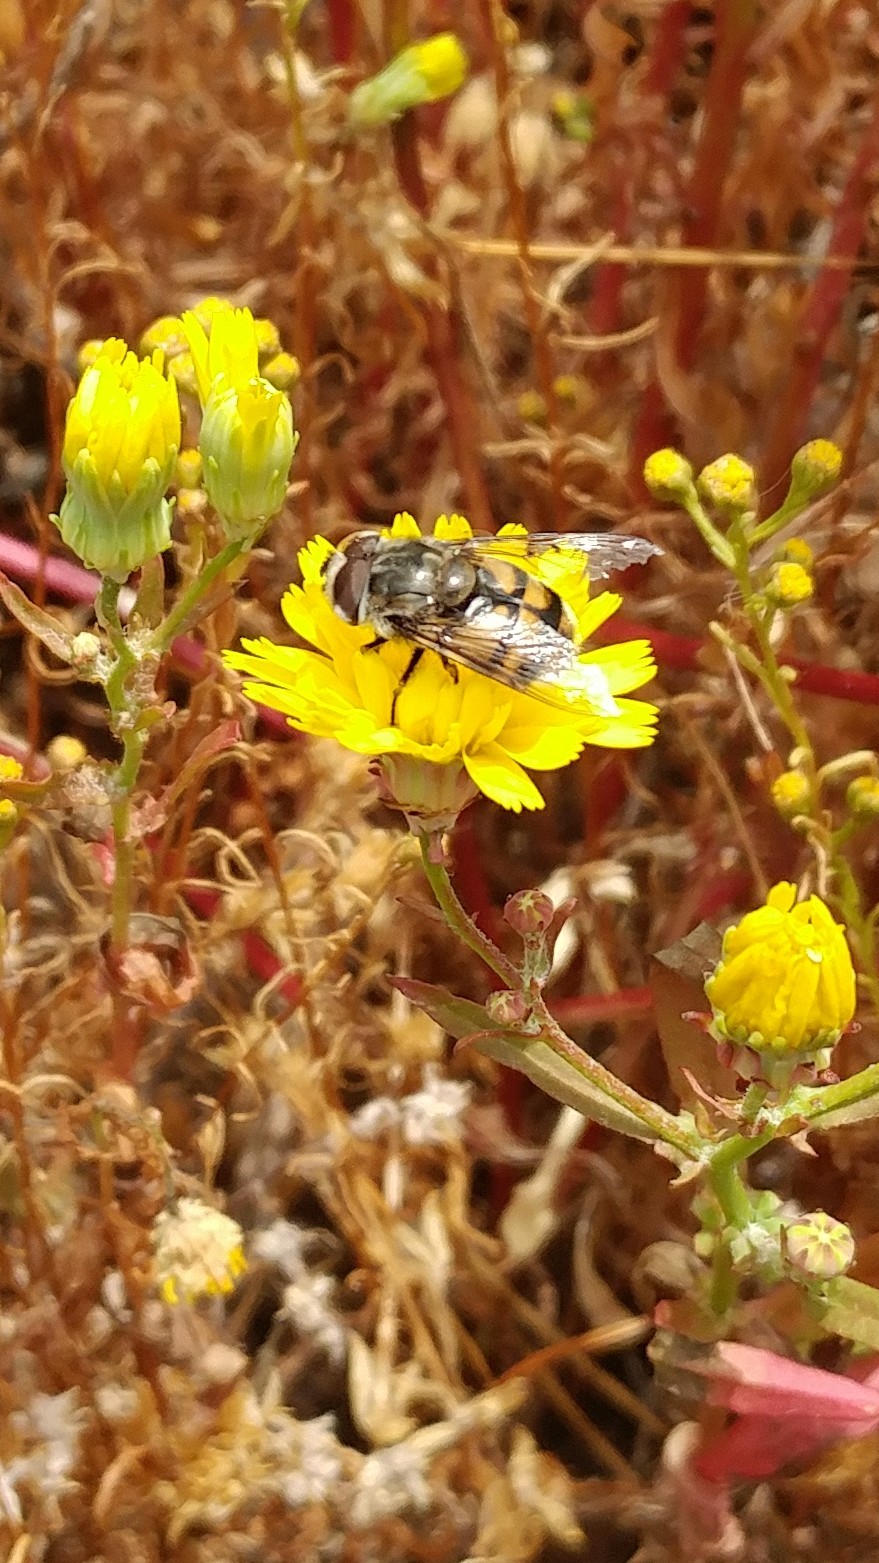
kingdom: Animalia
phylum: Arthropoda
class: Insecta
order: Diptera
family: Syrphidae
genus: Copestylum
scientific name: Copestylum avidum
